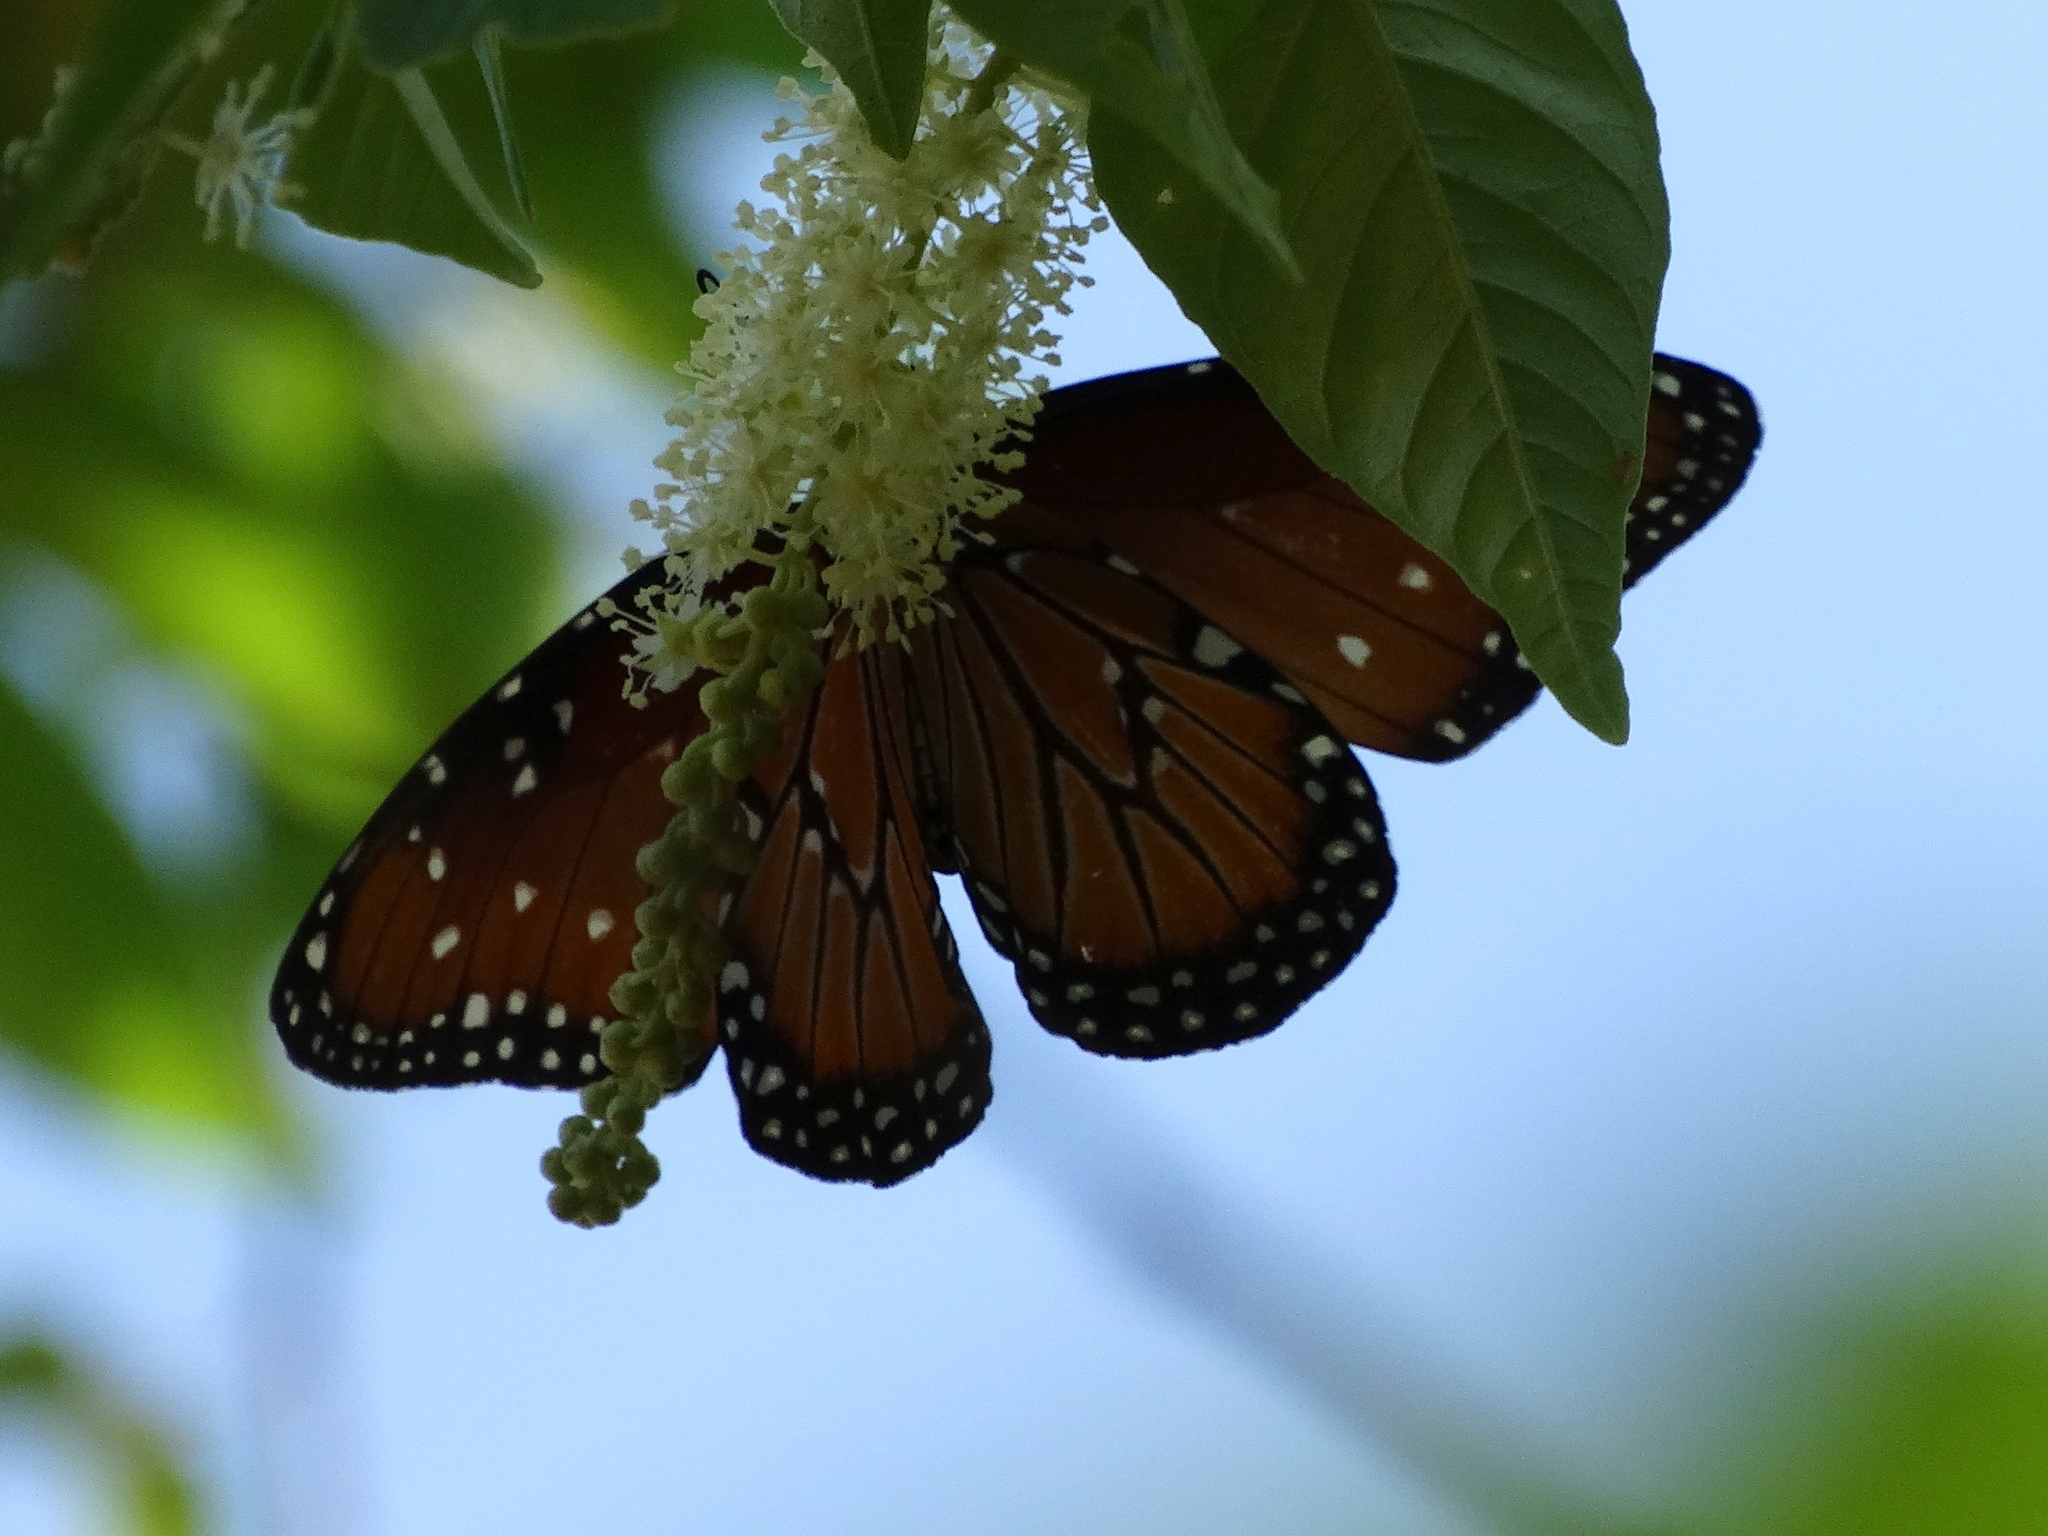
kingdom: Animalia
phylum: Arthropoda
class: Insecta
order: Lepidoptera
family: Nymphalidae
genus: Danaus
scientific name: Danaus gilippus
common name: Queen
